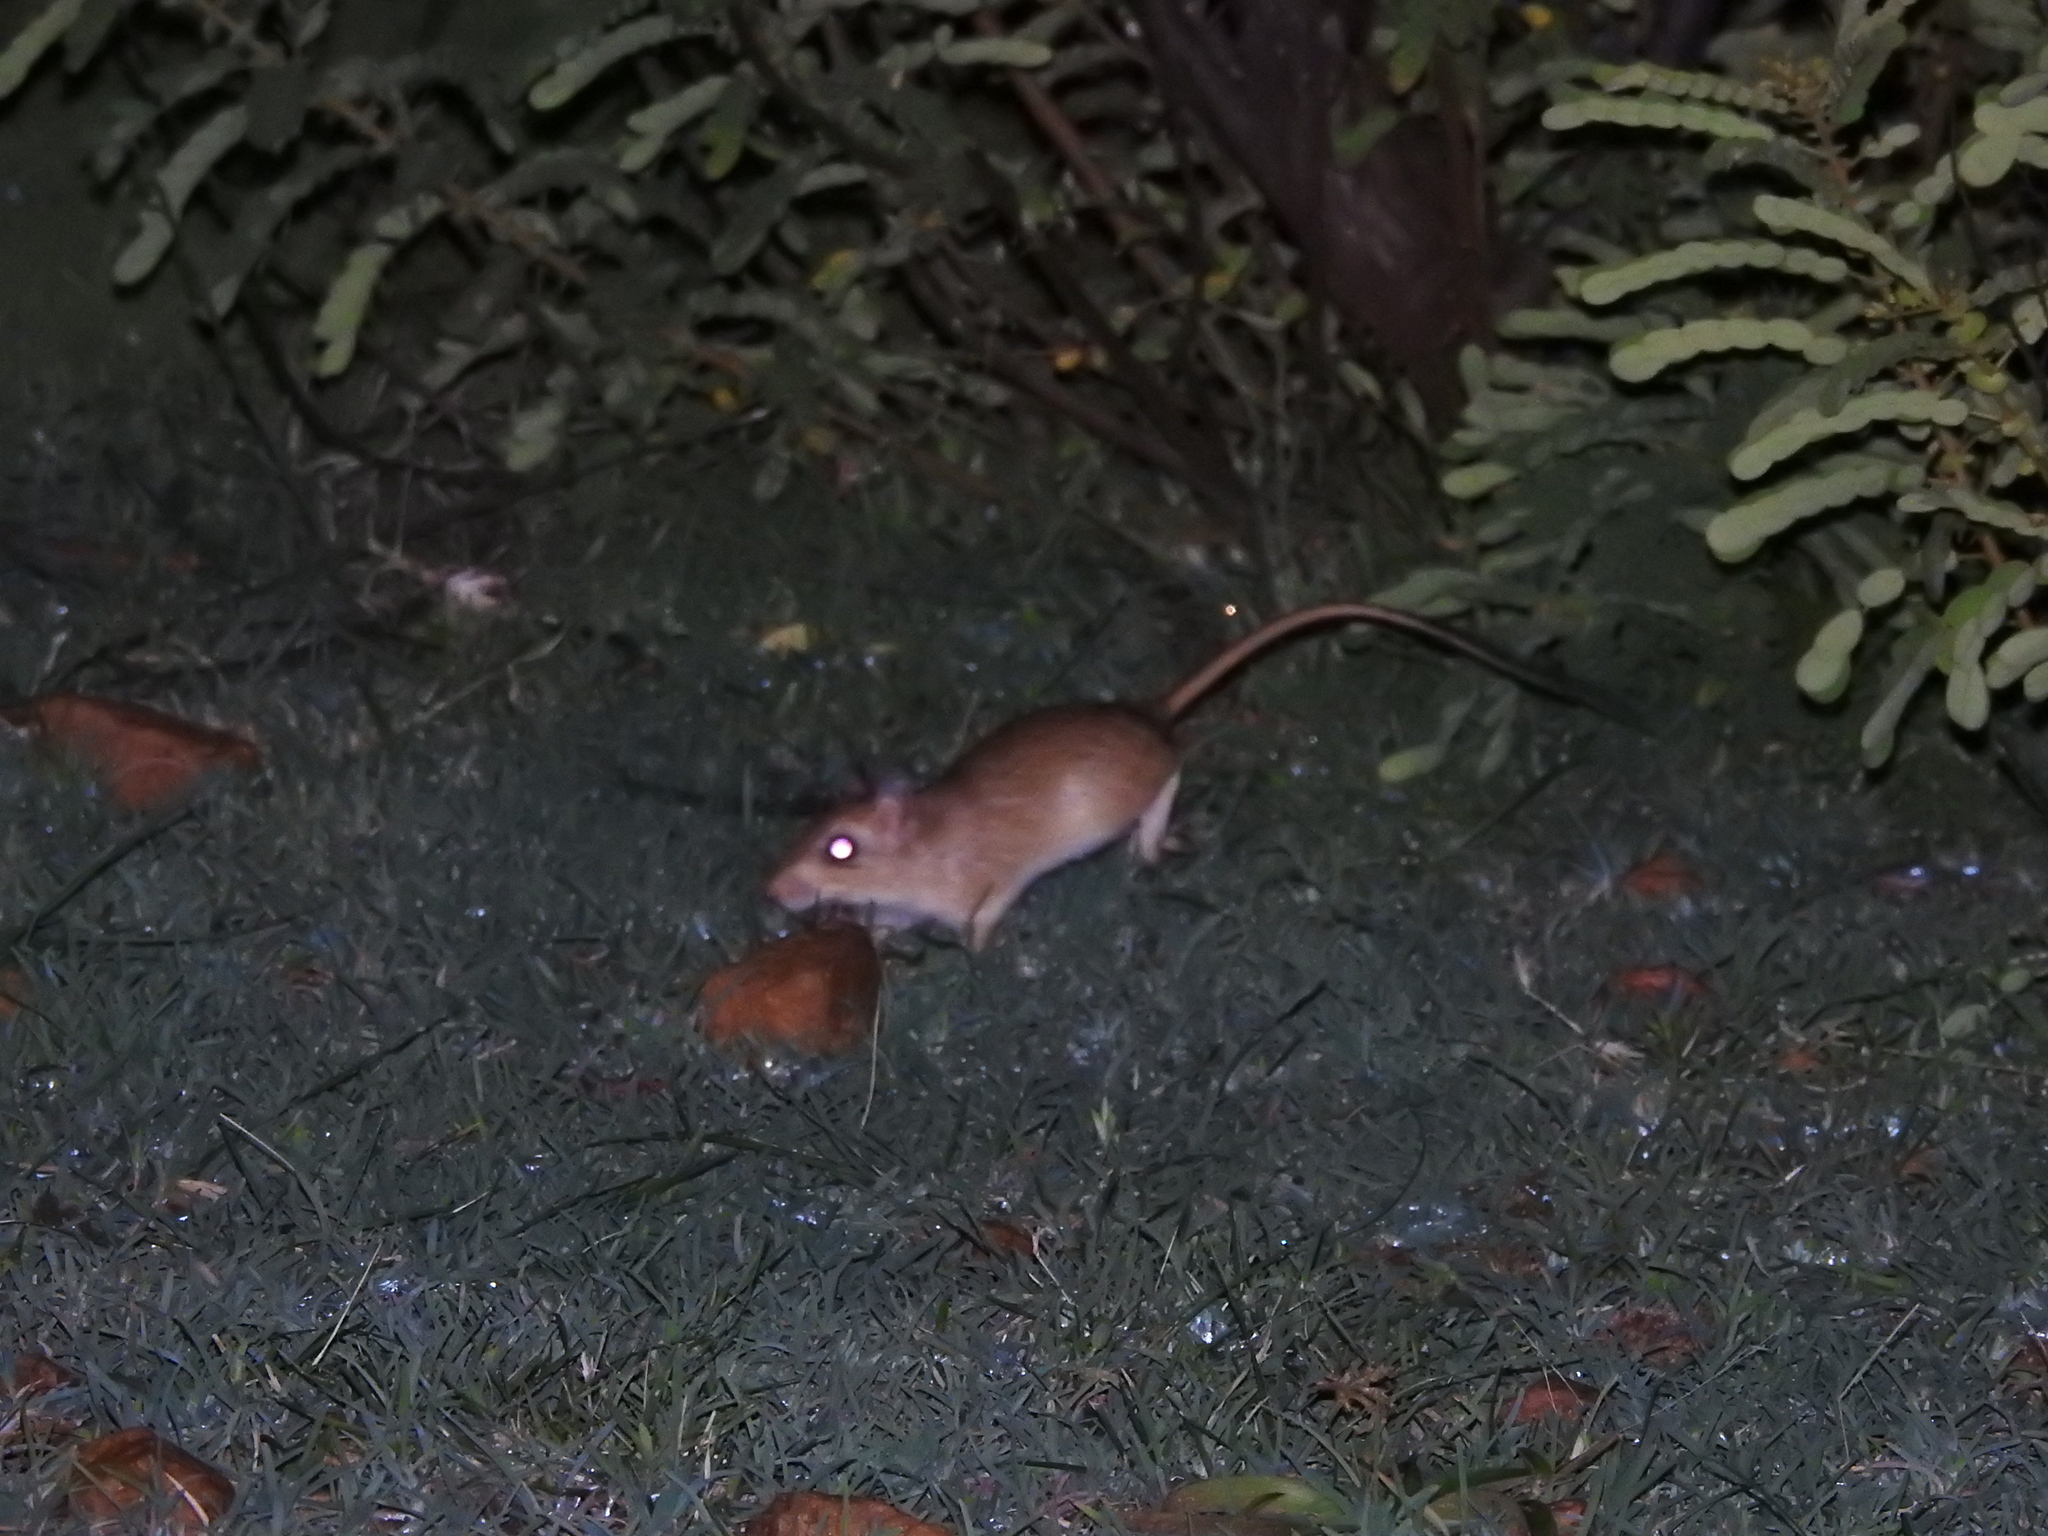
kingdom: Animalia
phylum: Chordata
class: Mammalia
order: Rodentia
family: Muridae
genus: Tatera
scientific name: Tatera indica
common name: Indian gerbil
